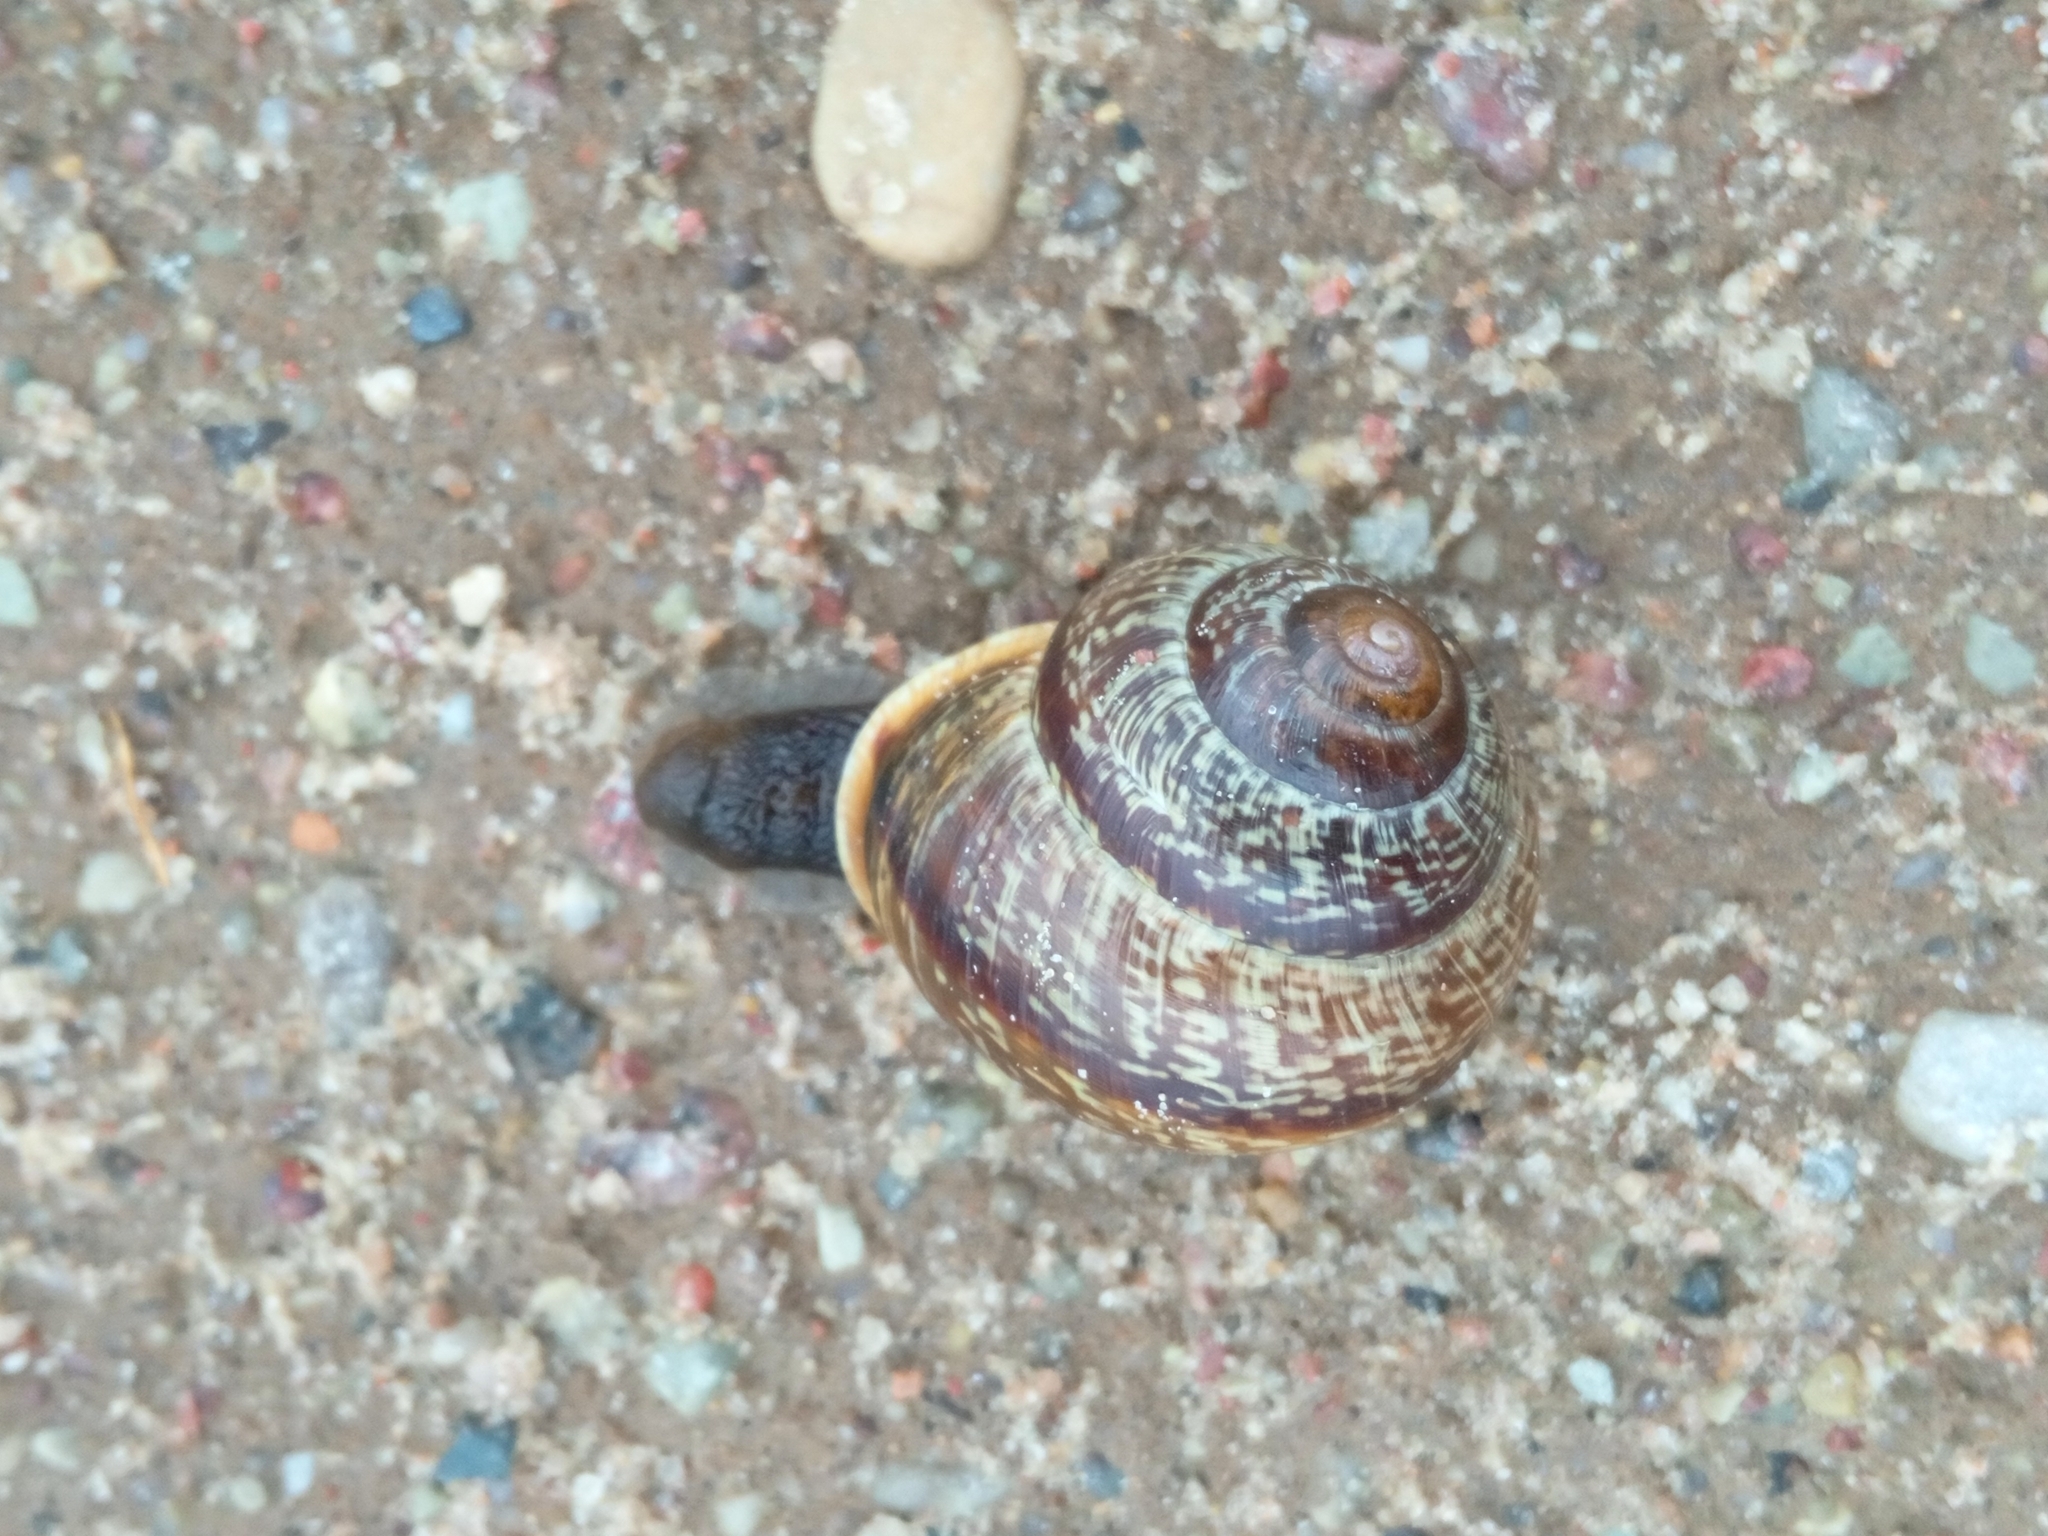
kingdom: Animalia
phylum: Mollusca
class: Gastropoda
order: Stylommatophora
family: Helicidae
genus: Arianta
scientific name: Arianta arbustorum
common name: Copse snail
